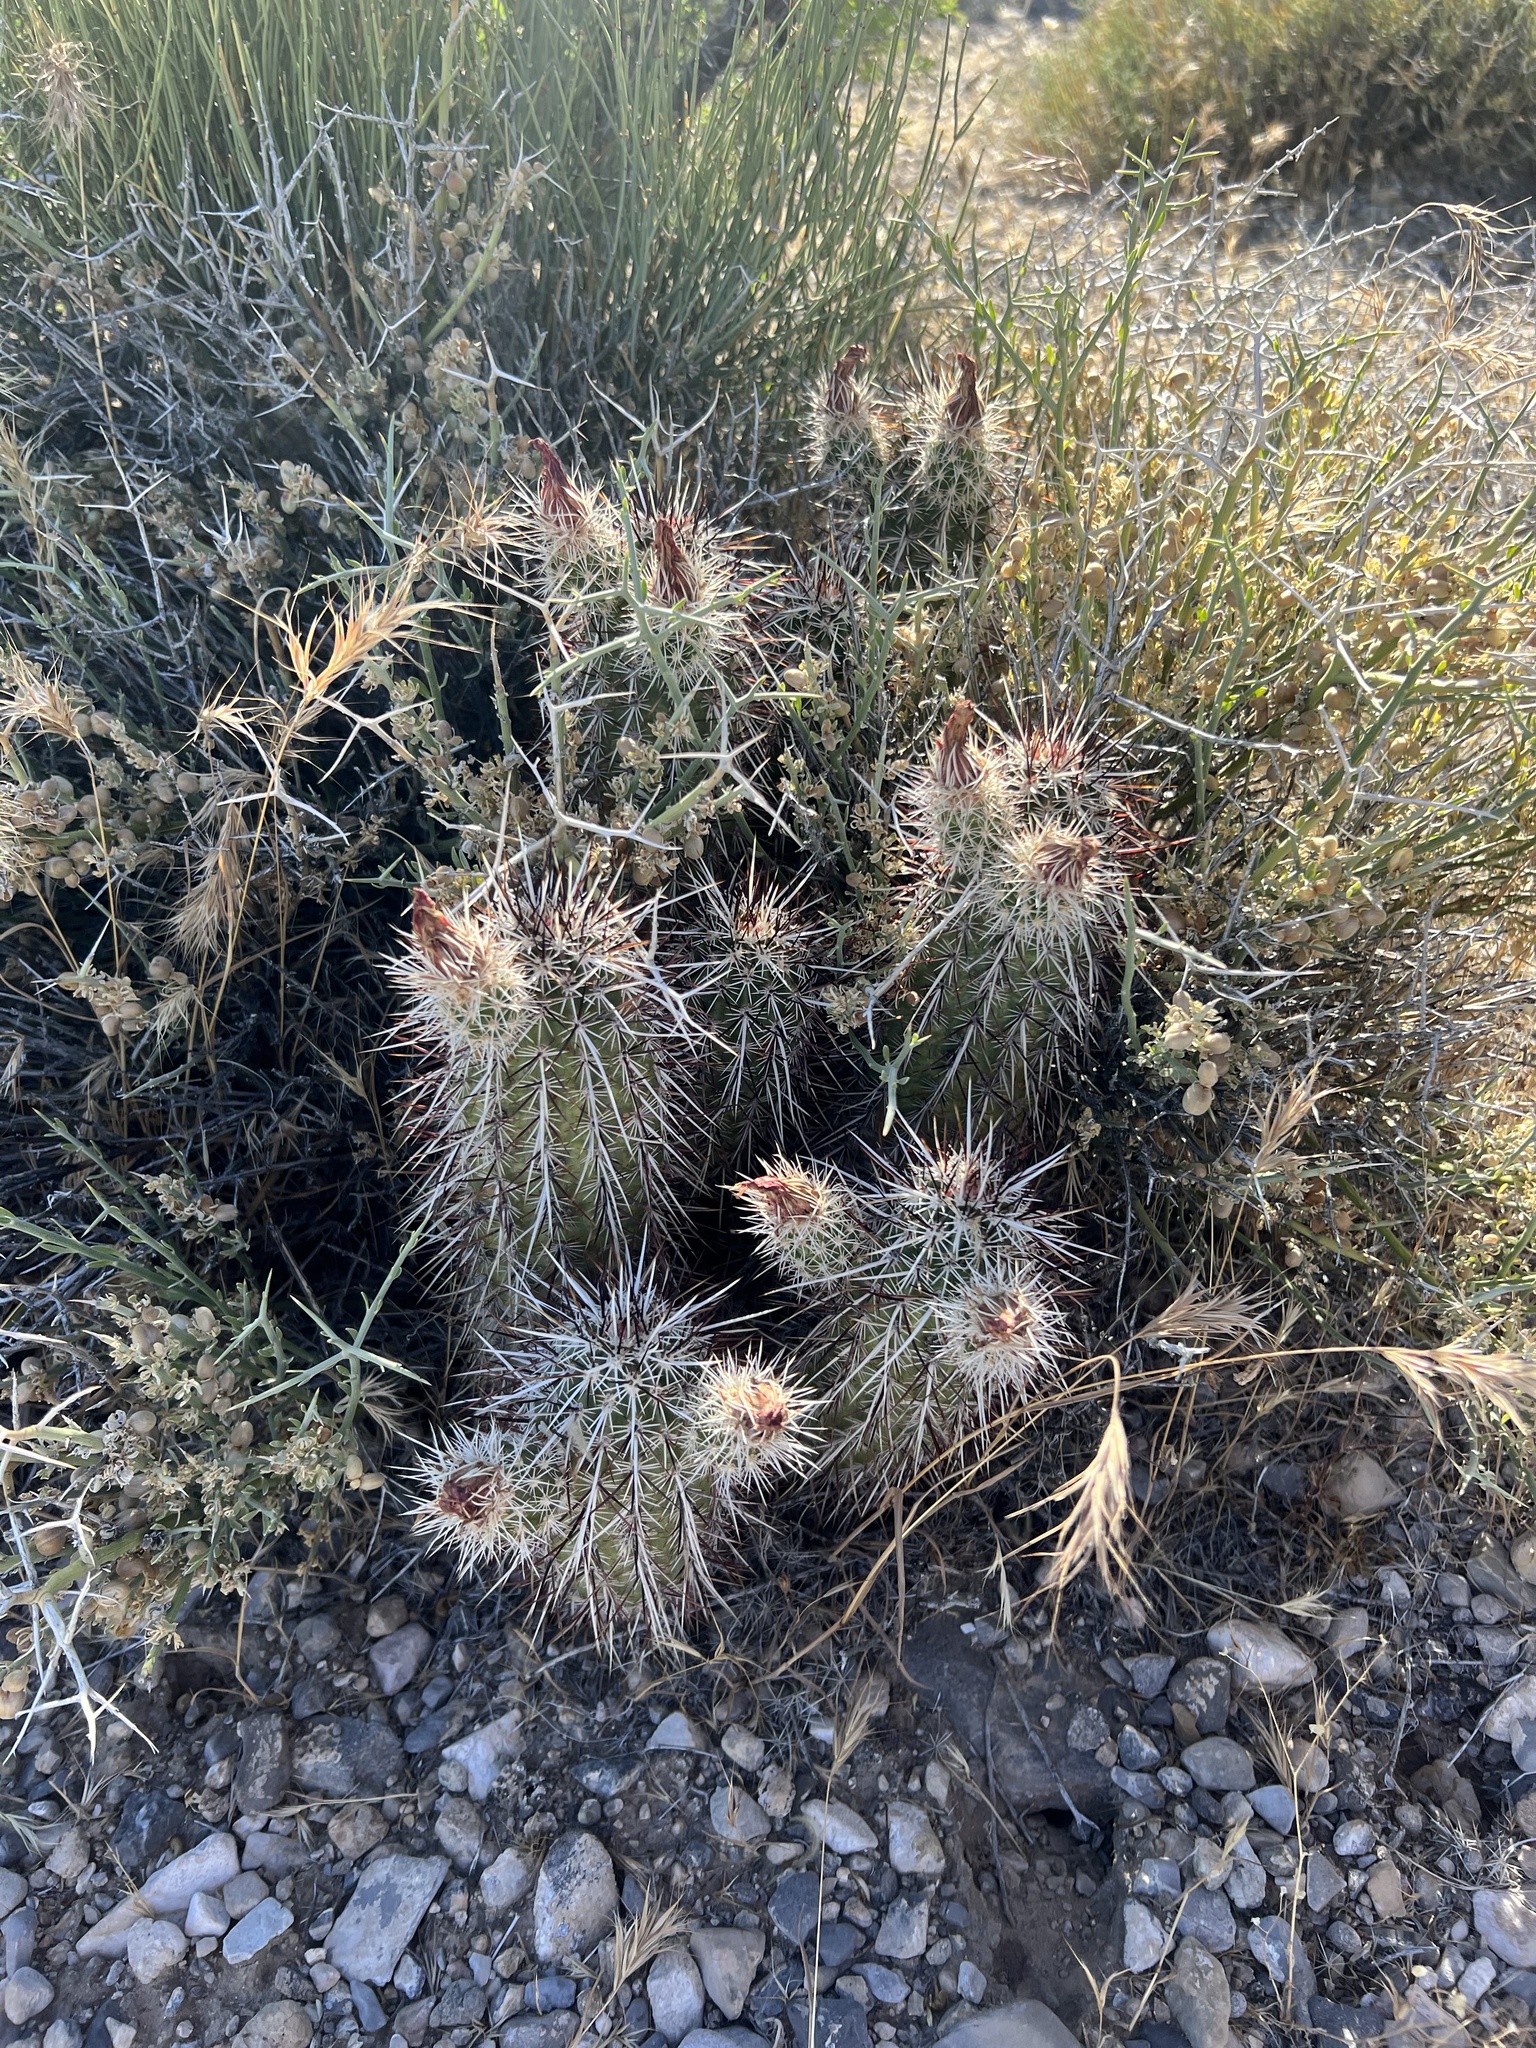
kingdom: Plantae
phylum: Tracheophyta
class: Magnoliopsida
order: Caryophyllales
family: Cactaceae
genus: Echinocereus
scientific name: Echinocereus engelmannii
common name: Engelmann's hedgehog cactus
